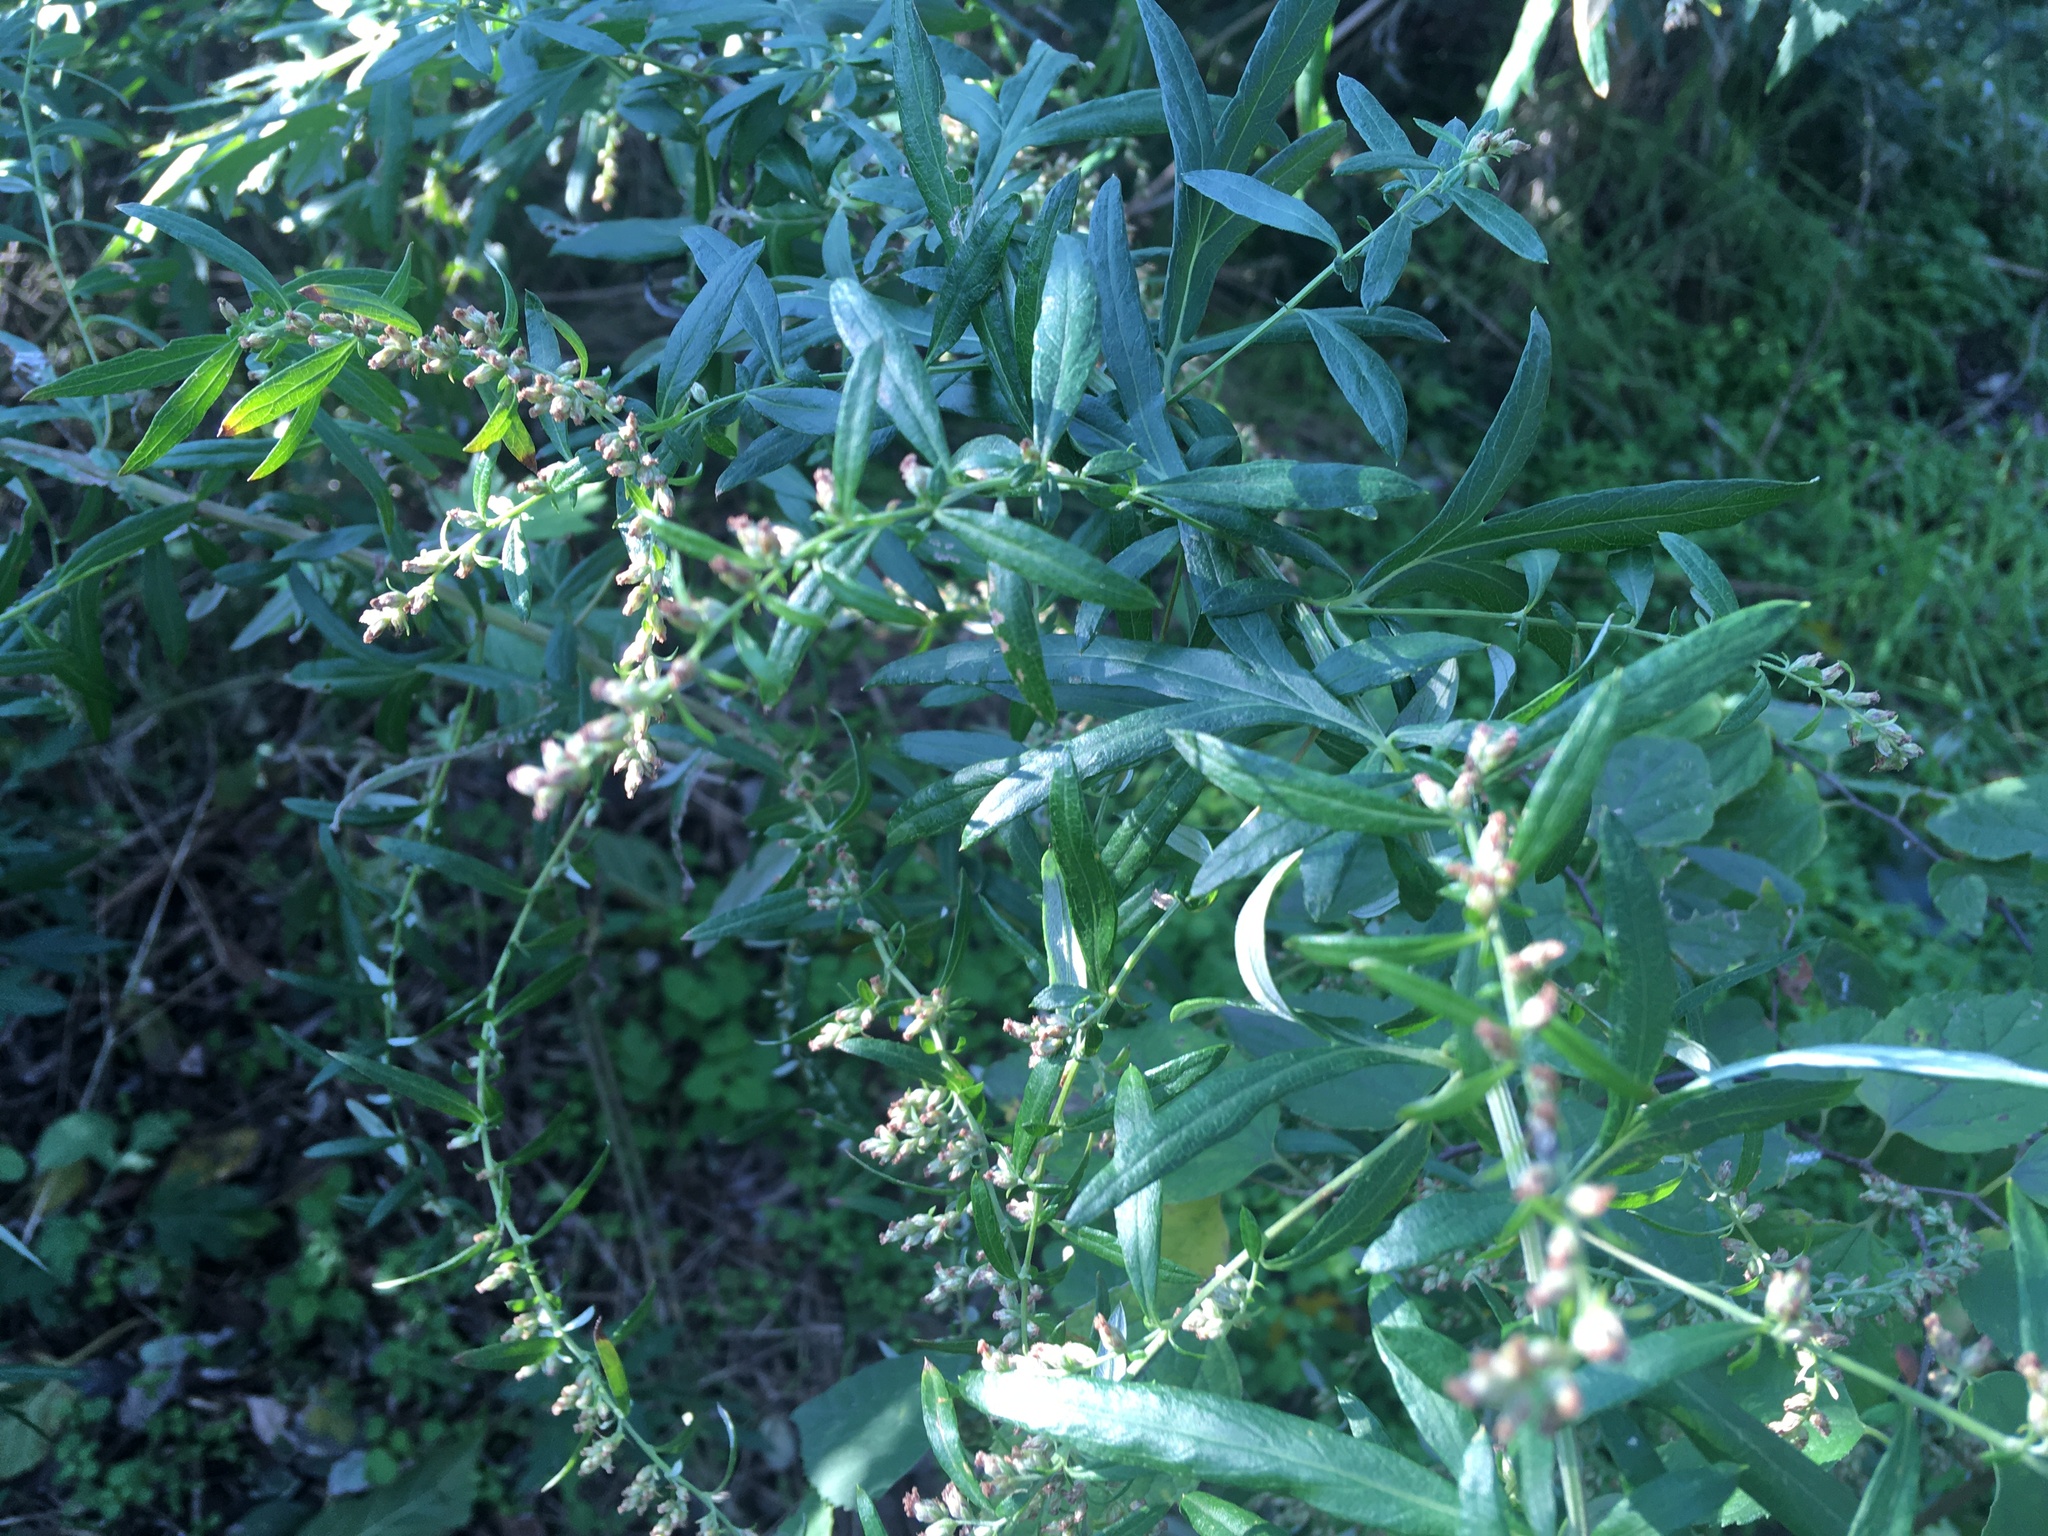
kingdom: Plantae
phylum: Tracheophyta
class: Magnoliopsida
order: Asterales
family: Asteraceae
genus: Artemisia
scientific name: Artemisia vulgaris
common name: Mugwort
